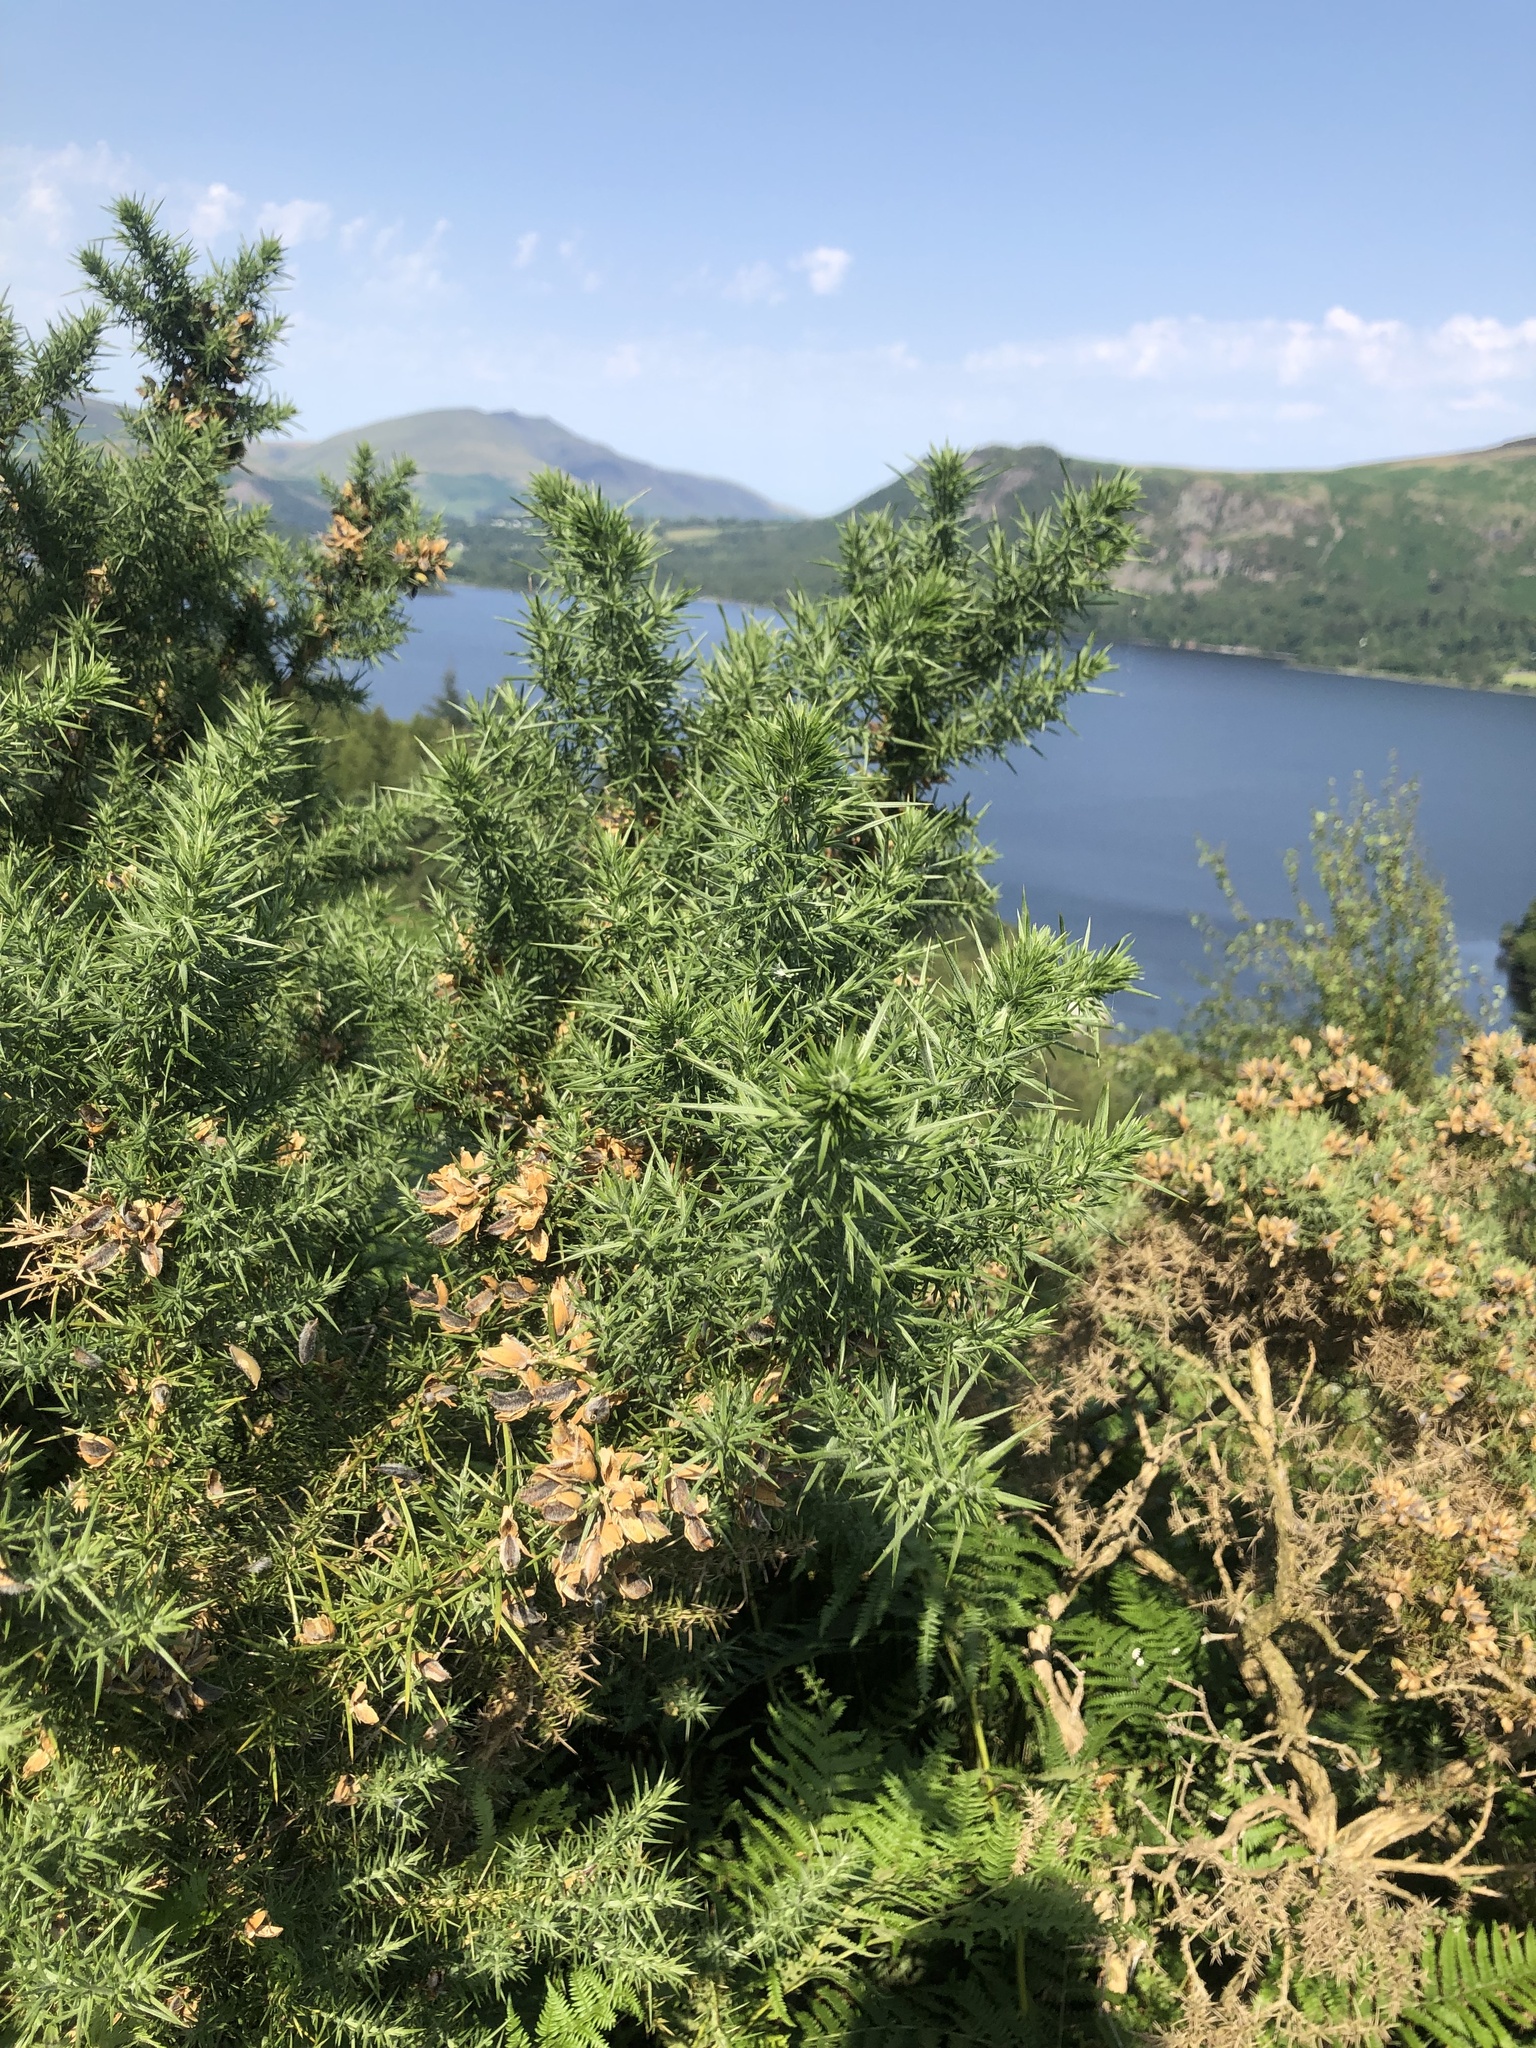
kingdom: Plantae
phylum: Tracheophyta
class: Magnoliopsida
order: Fabales
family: Fabaceae
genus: Ulex
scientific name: Ulex europaeus
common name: Common gorse
